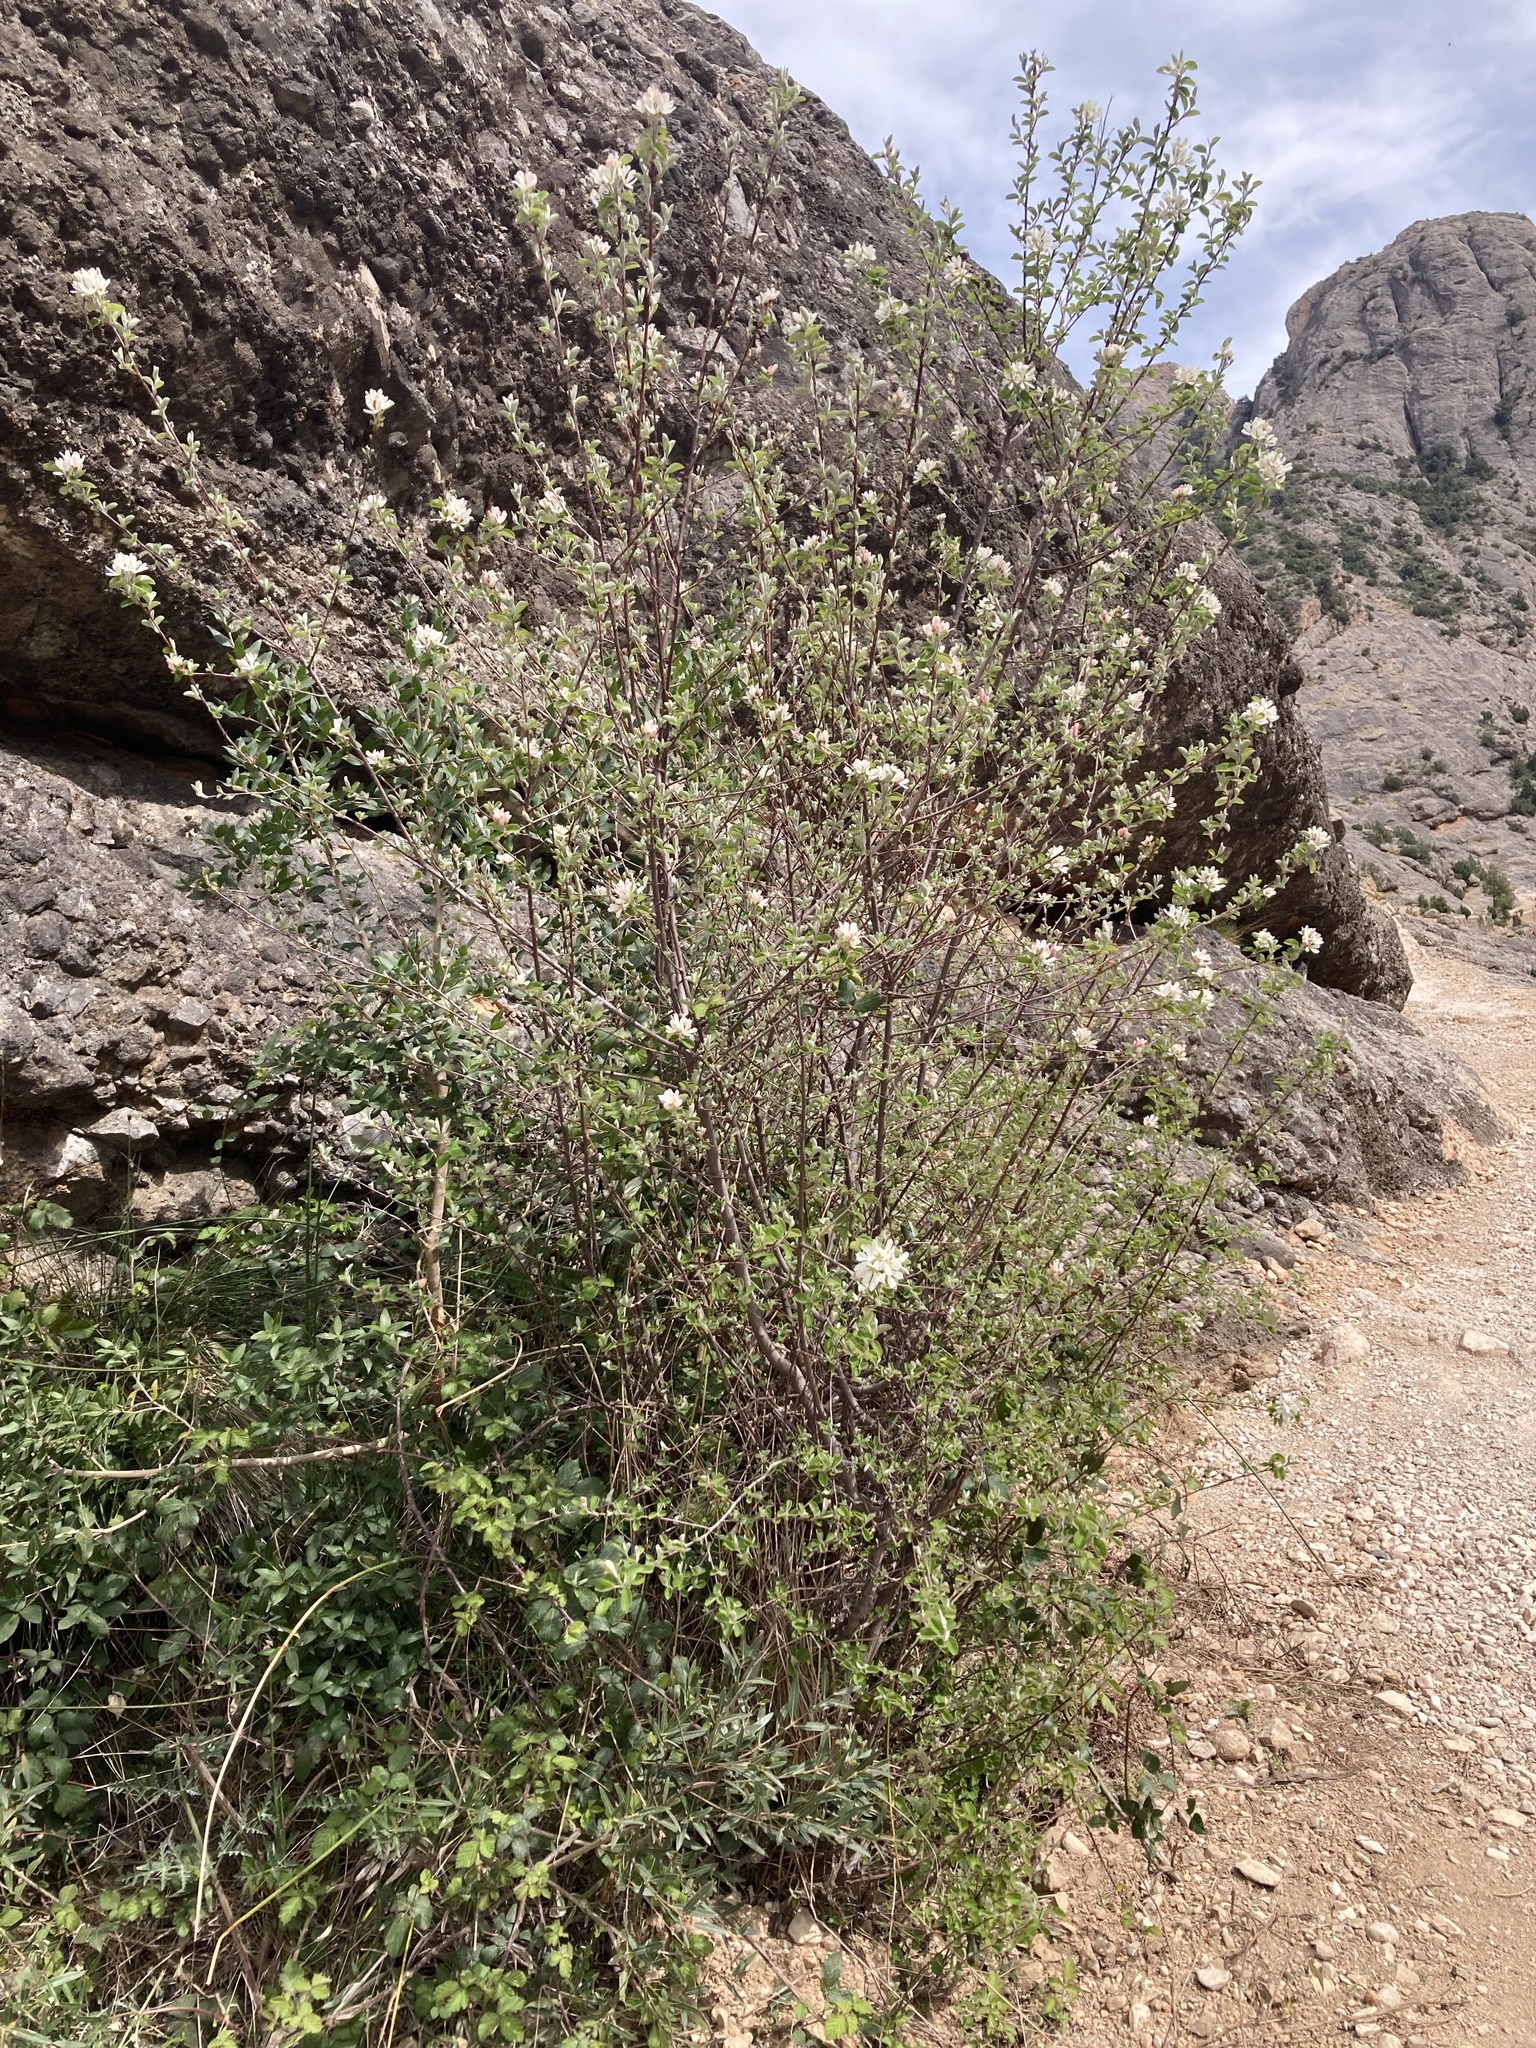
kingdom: Plantae
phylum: Tracheophyta
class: Magnoliopsida
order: Rosales
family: Rosaceae
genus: Amelanchier
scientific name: Amelanchier ovalis
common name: Serviceberry
